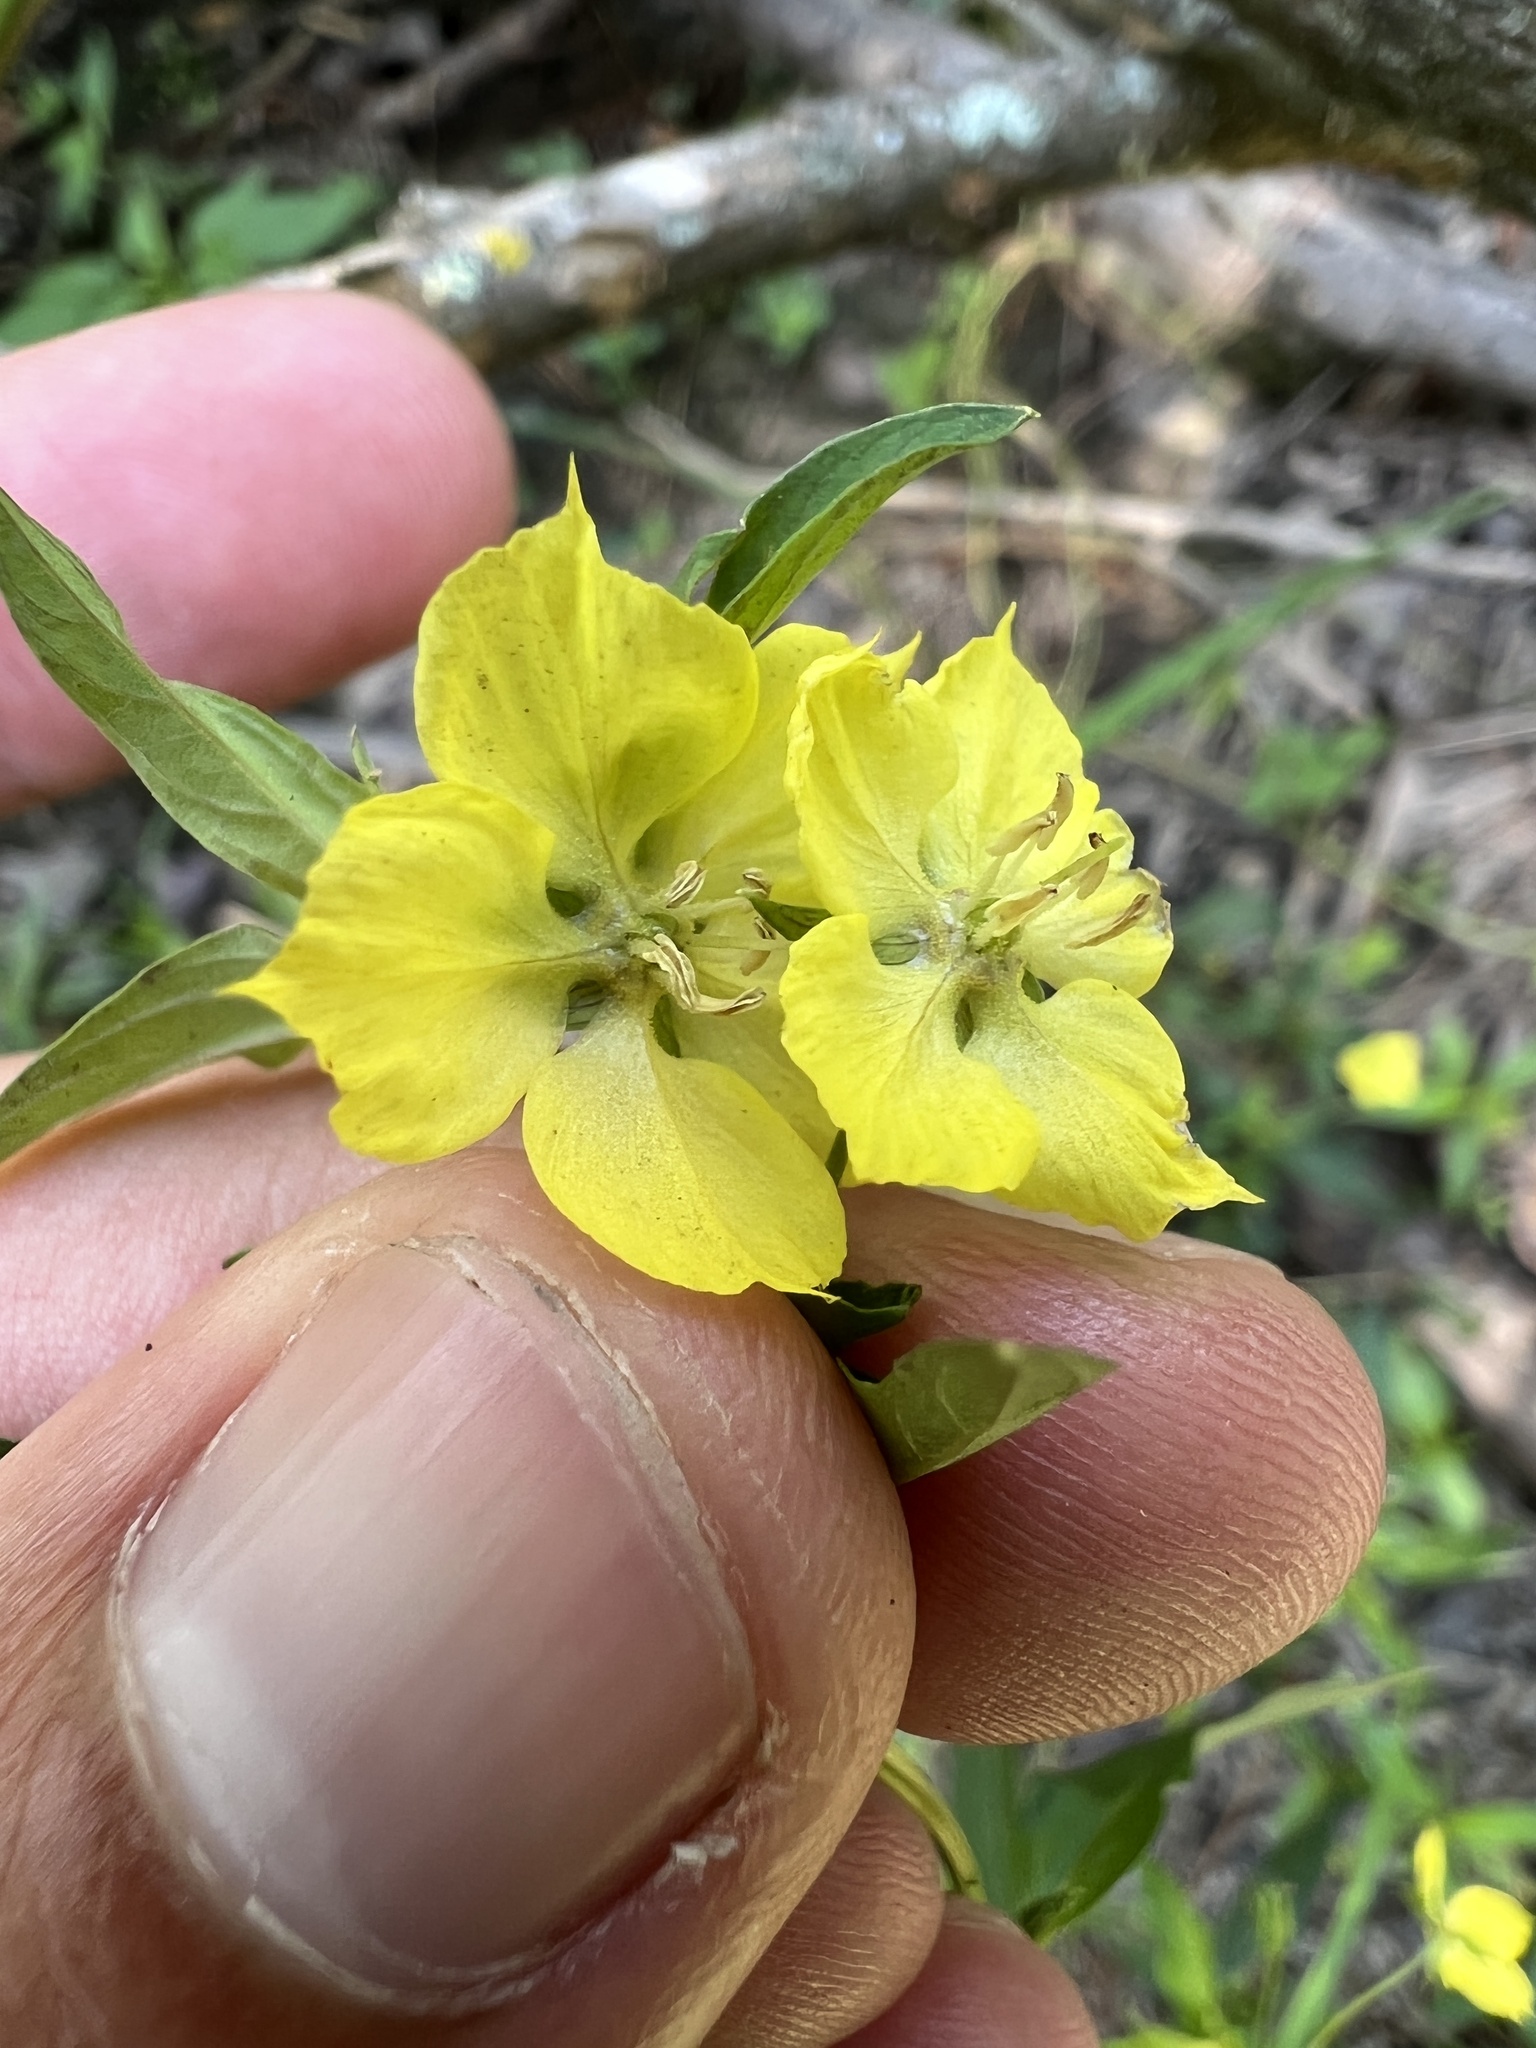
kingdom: Plantae
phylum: Tracheophyta
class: Magnoliopsida
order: Ericales
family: Primulaceae
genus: Lysimachia
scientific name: Lysimachia lanceolata
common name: Lance-leaved loosestrife
